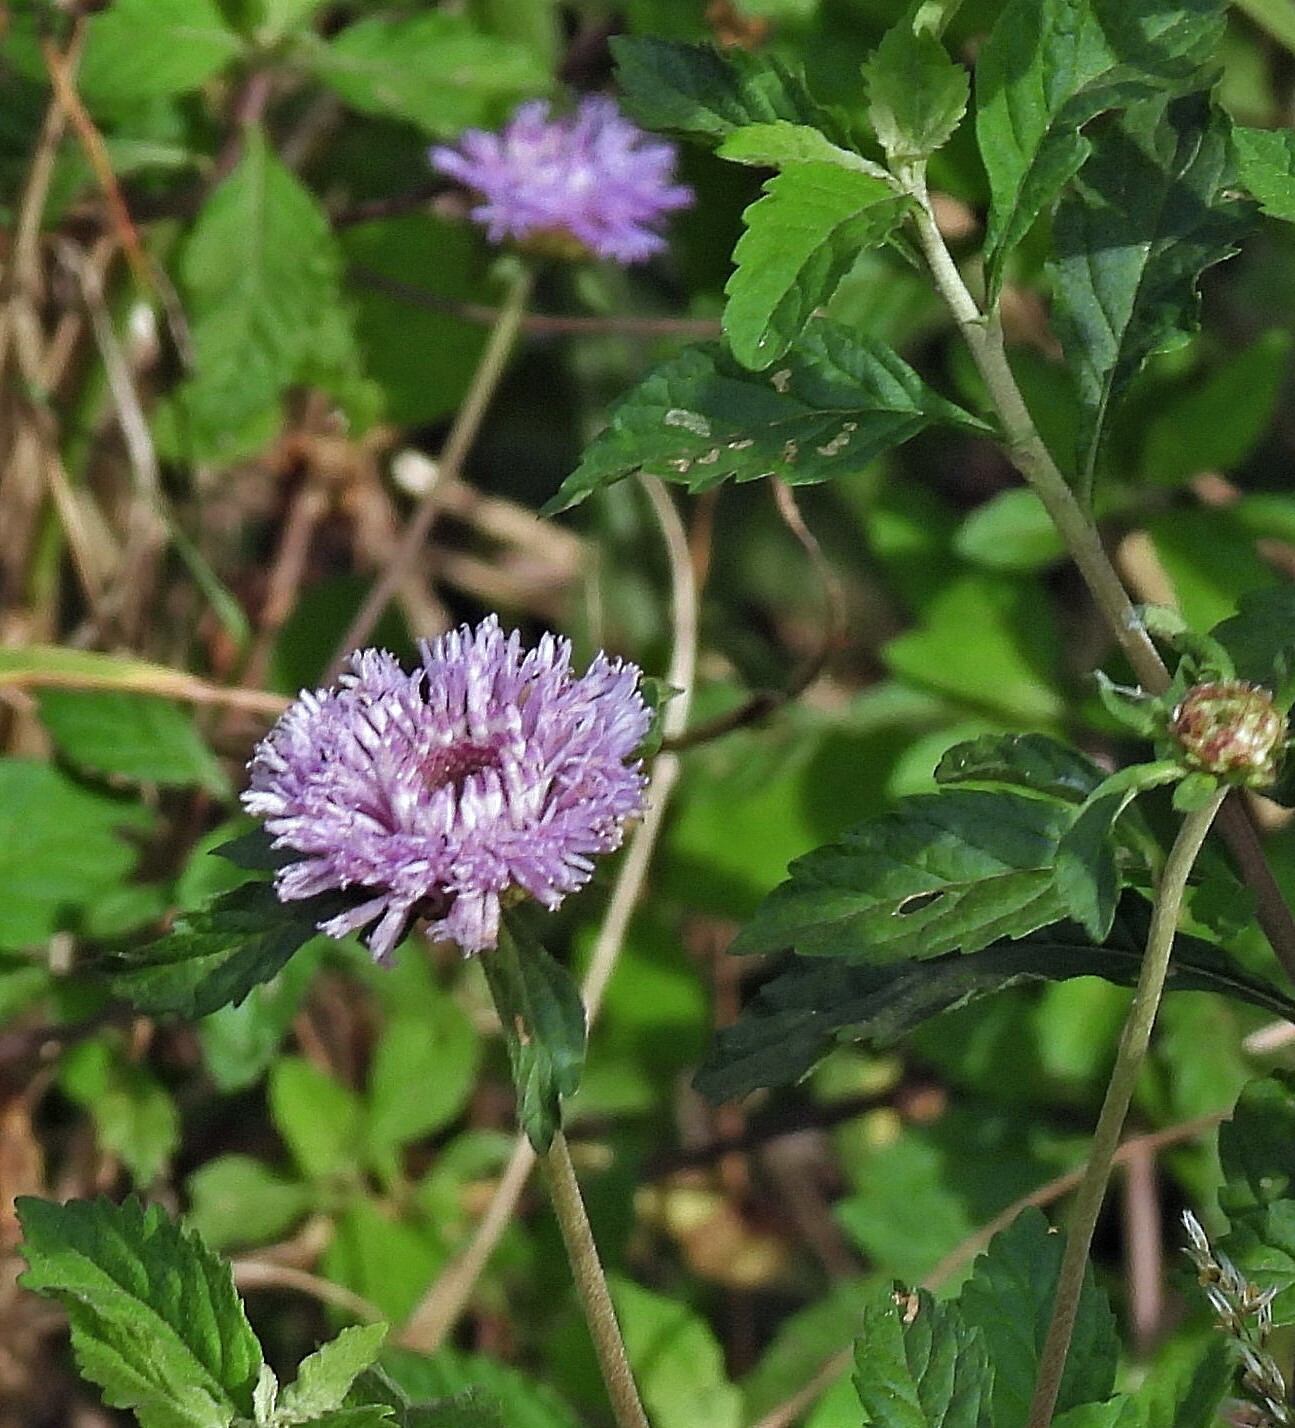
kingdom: Plantae
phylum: Tracheophyta
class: Magnoliopsida
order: Asterales
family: Asteraceae
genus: Centratherum
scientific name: Centratherum punctatum
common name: Larkdaisy
